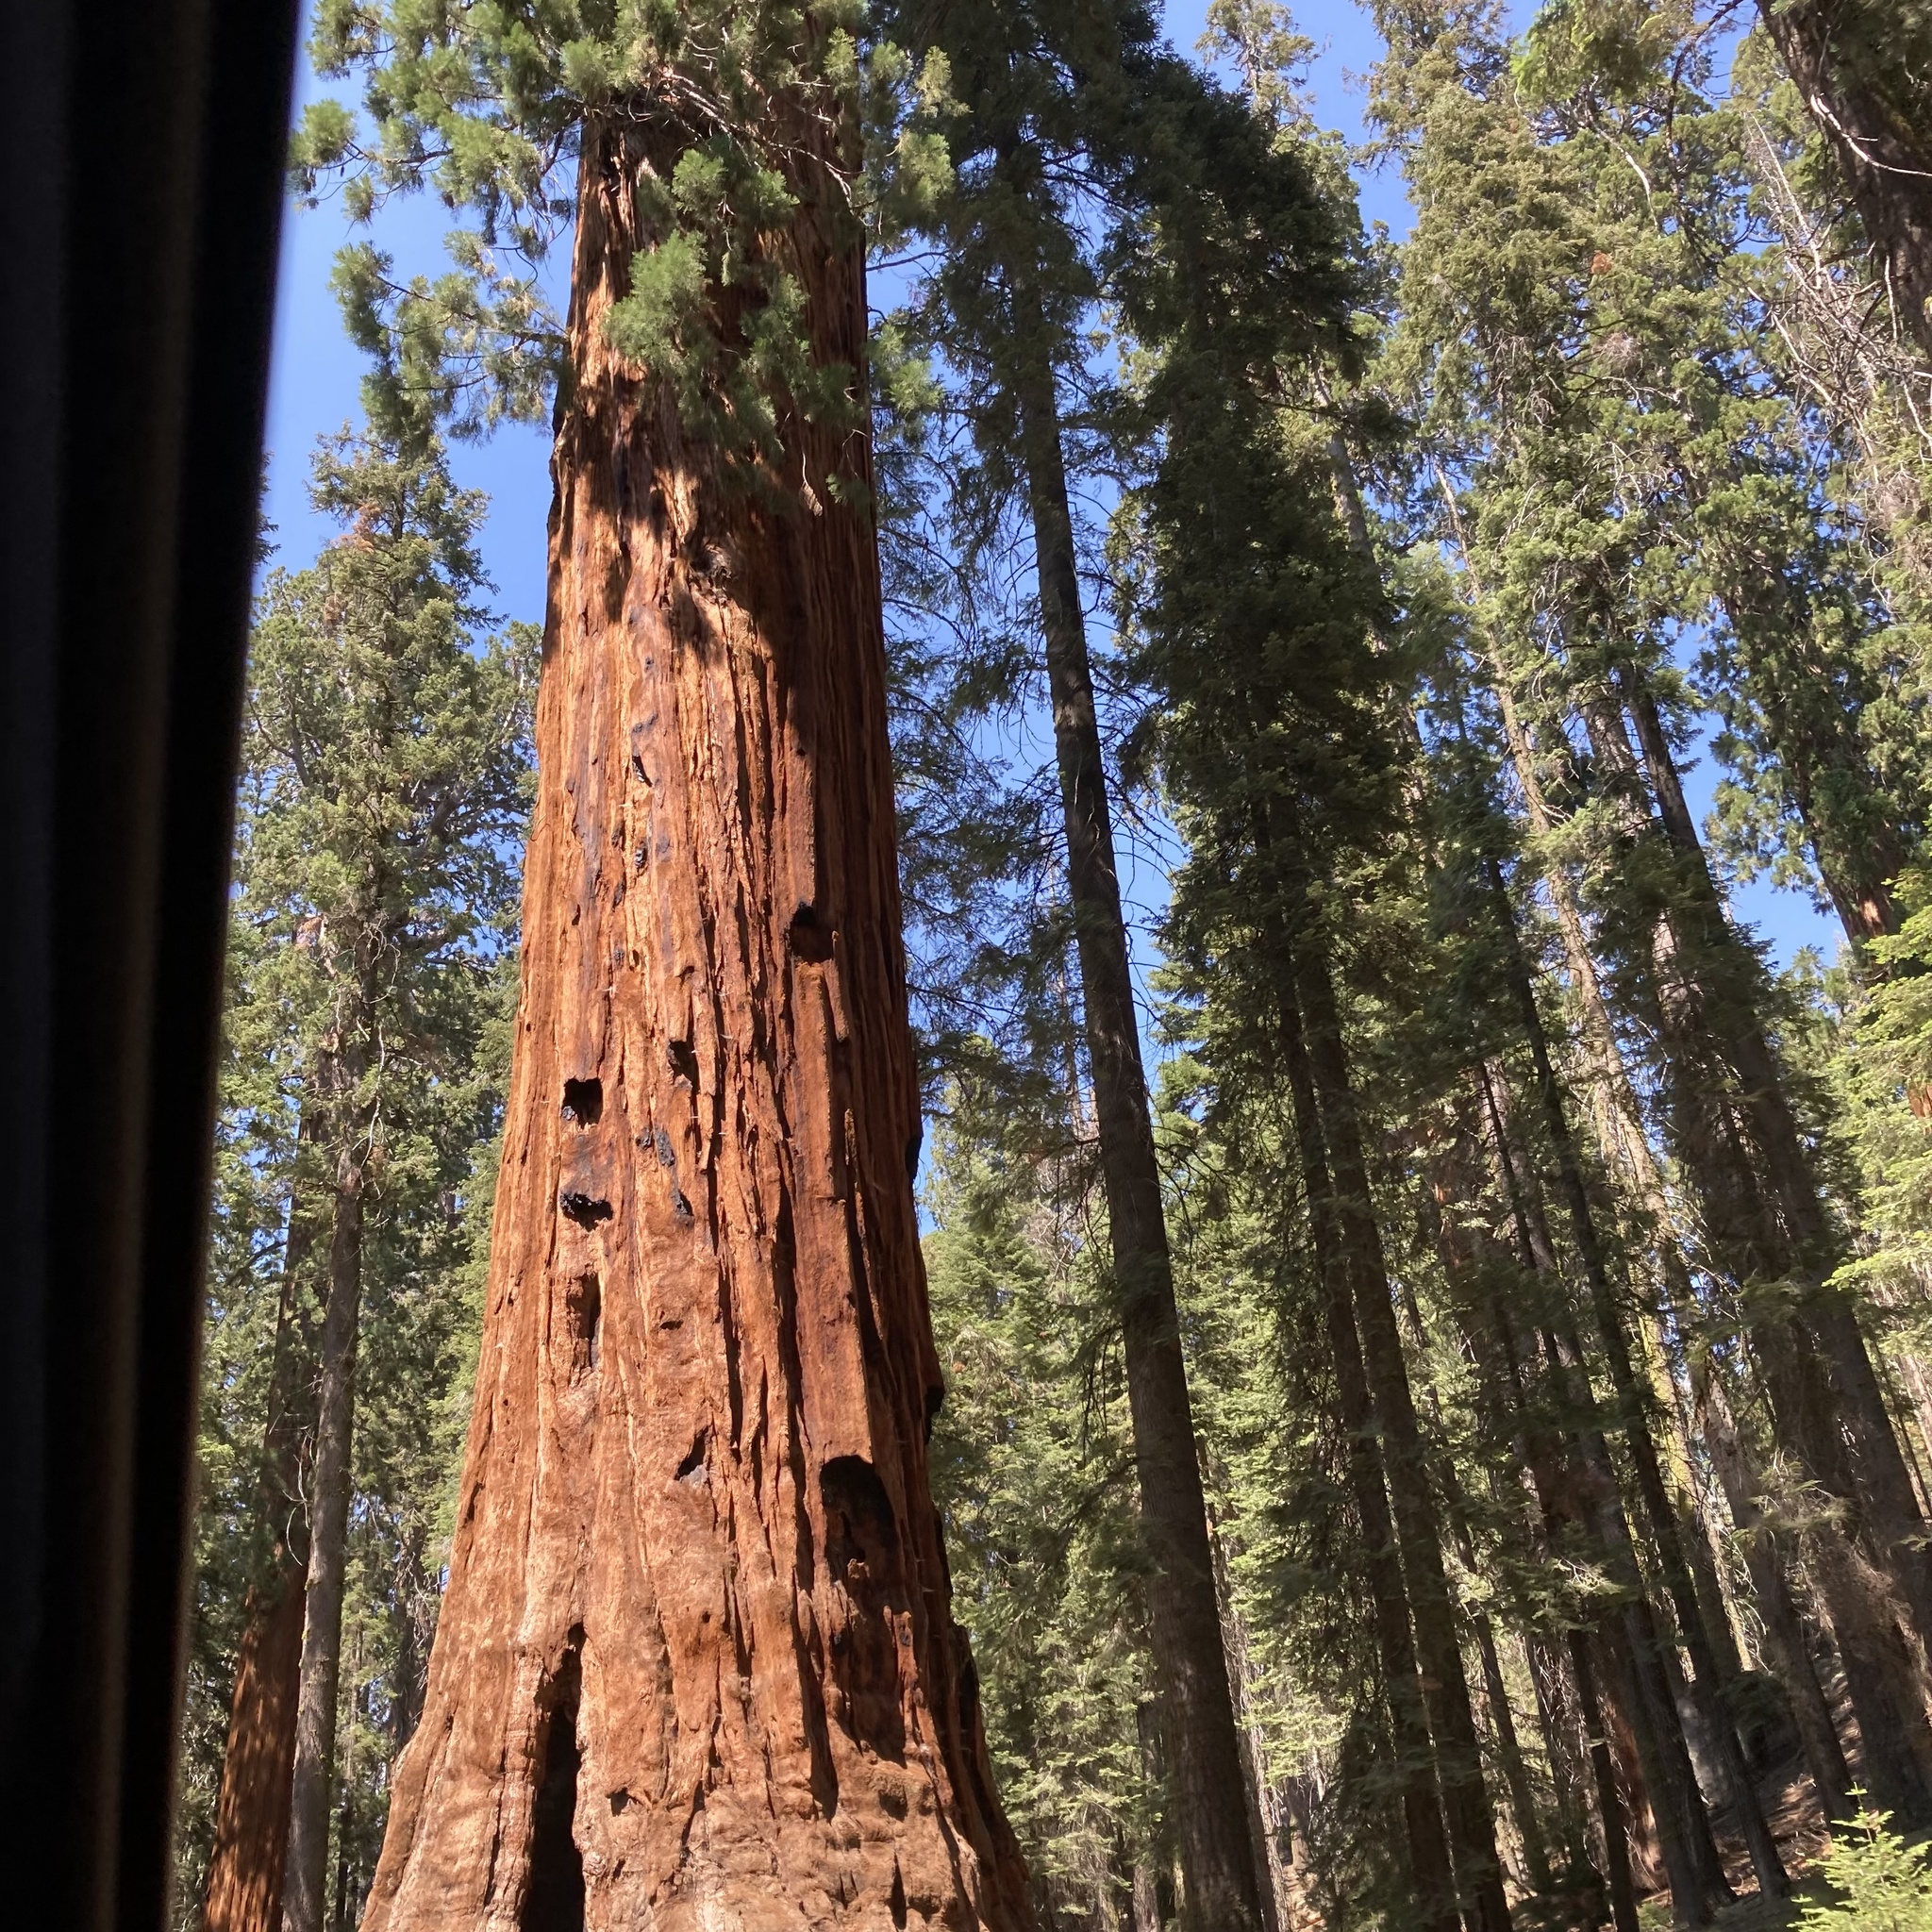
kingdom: Plantae
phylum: Tracheophyta
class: Pinopsida
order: Pinales
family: Cupressaceae
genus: Sequoiadendron
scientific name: Sequoiadendron giganteum
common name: Wellingtonia
